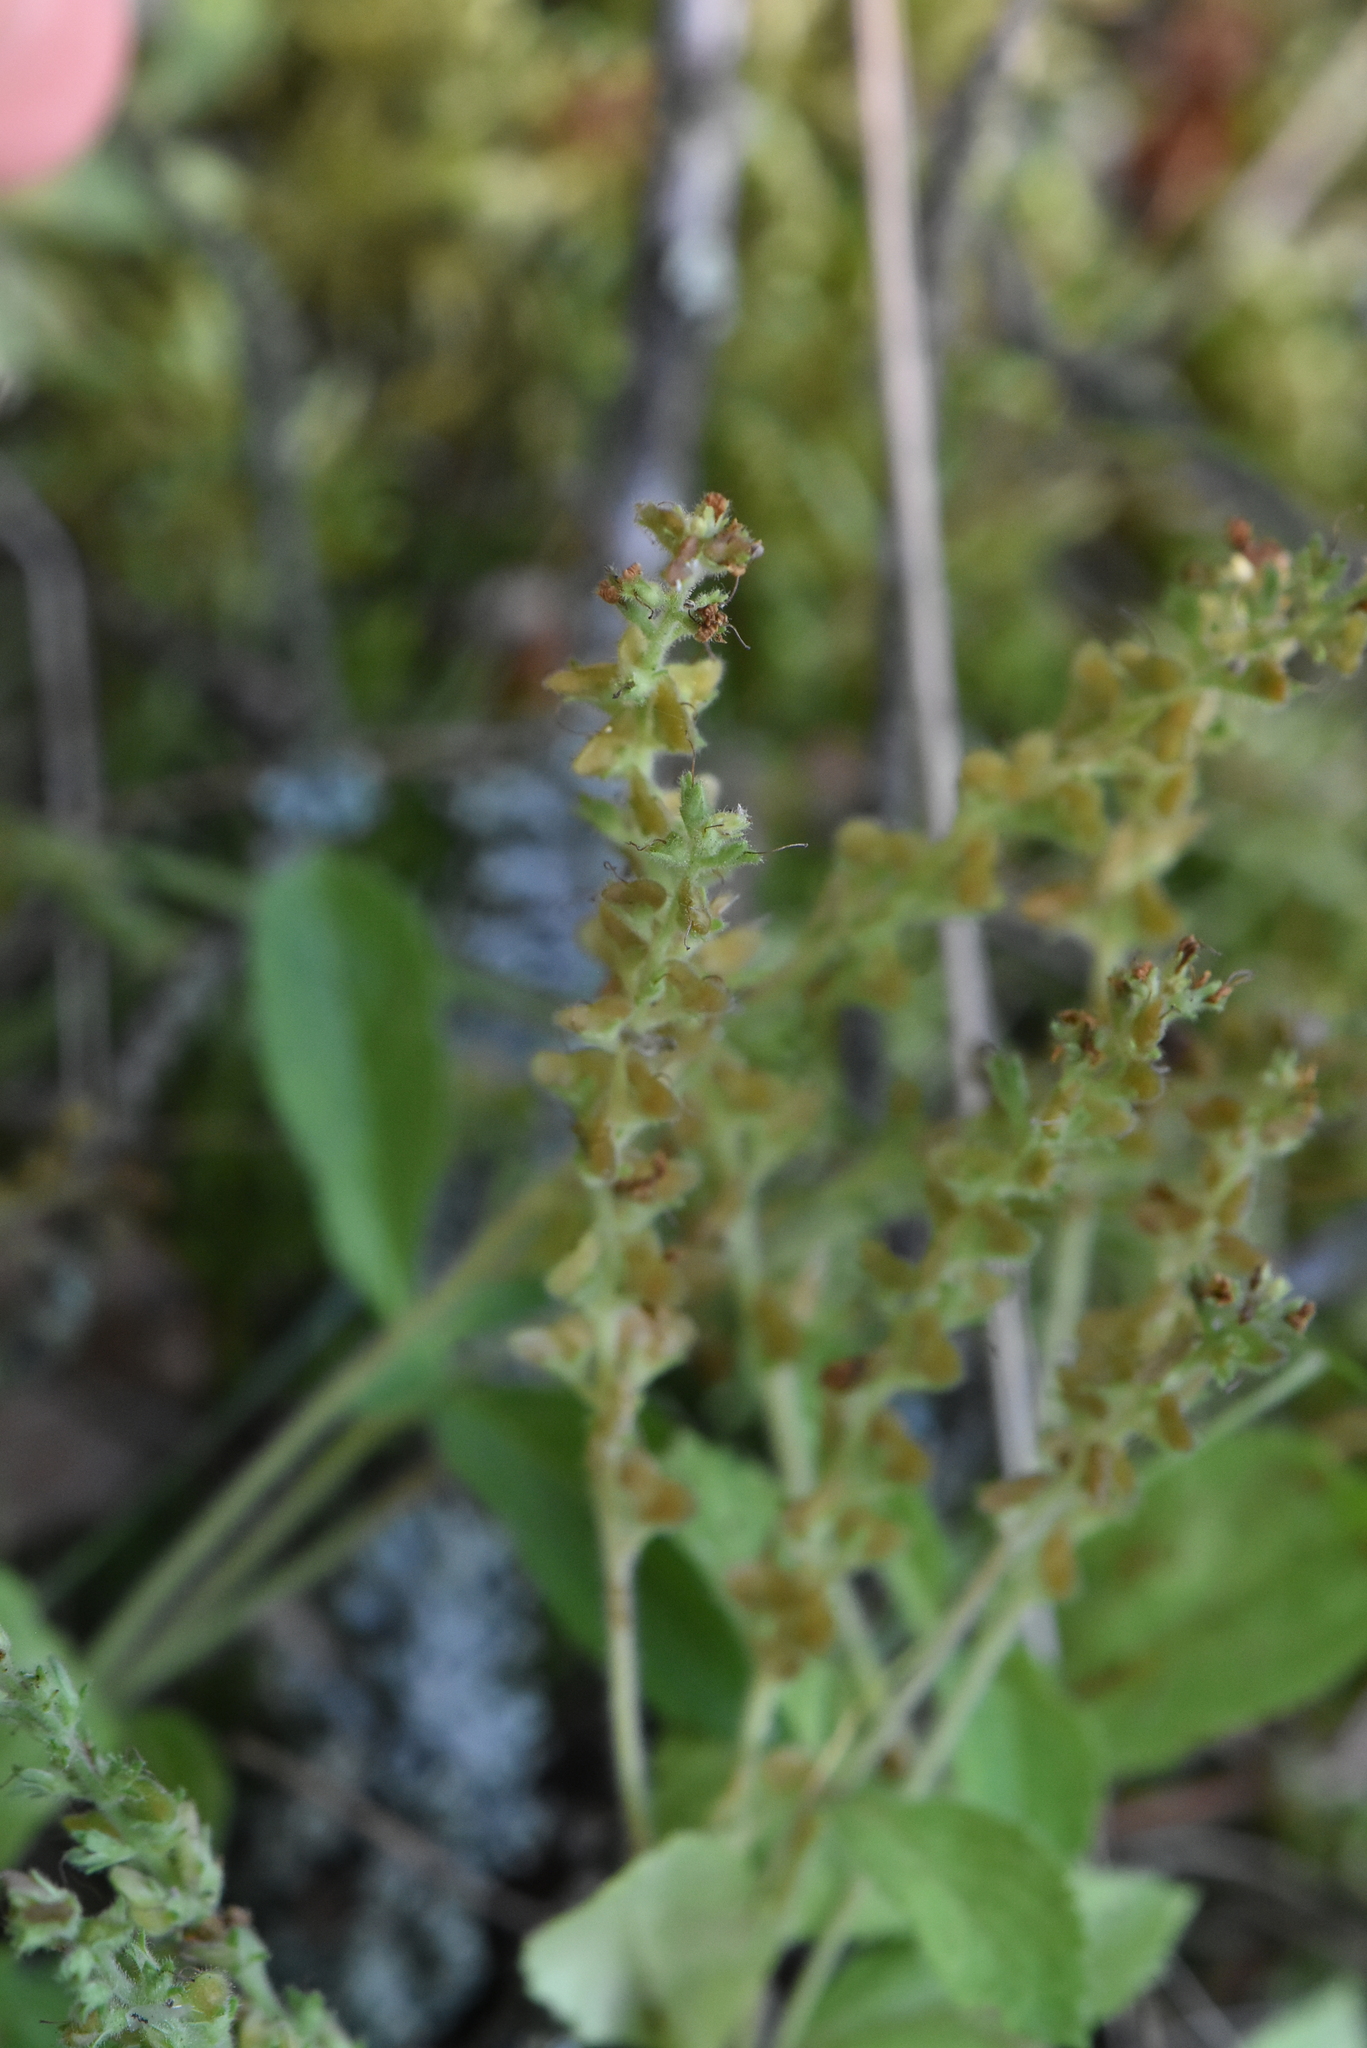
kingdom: Plantae
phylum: Tracheophyta
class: Magnoliopsida
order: Lamiales
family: Plantaginaceae
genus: Veronica
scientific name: Veronica officinalis
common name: Common speedwell
